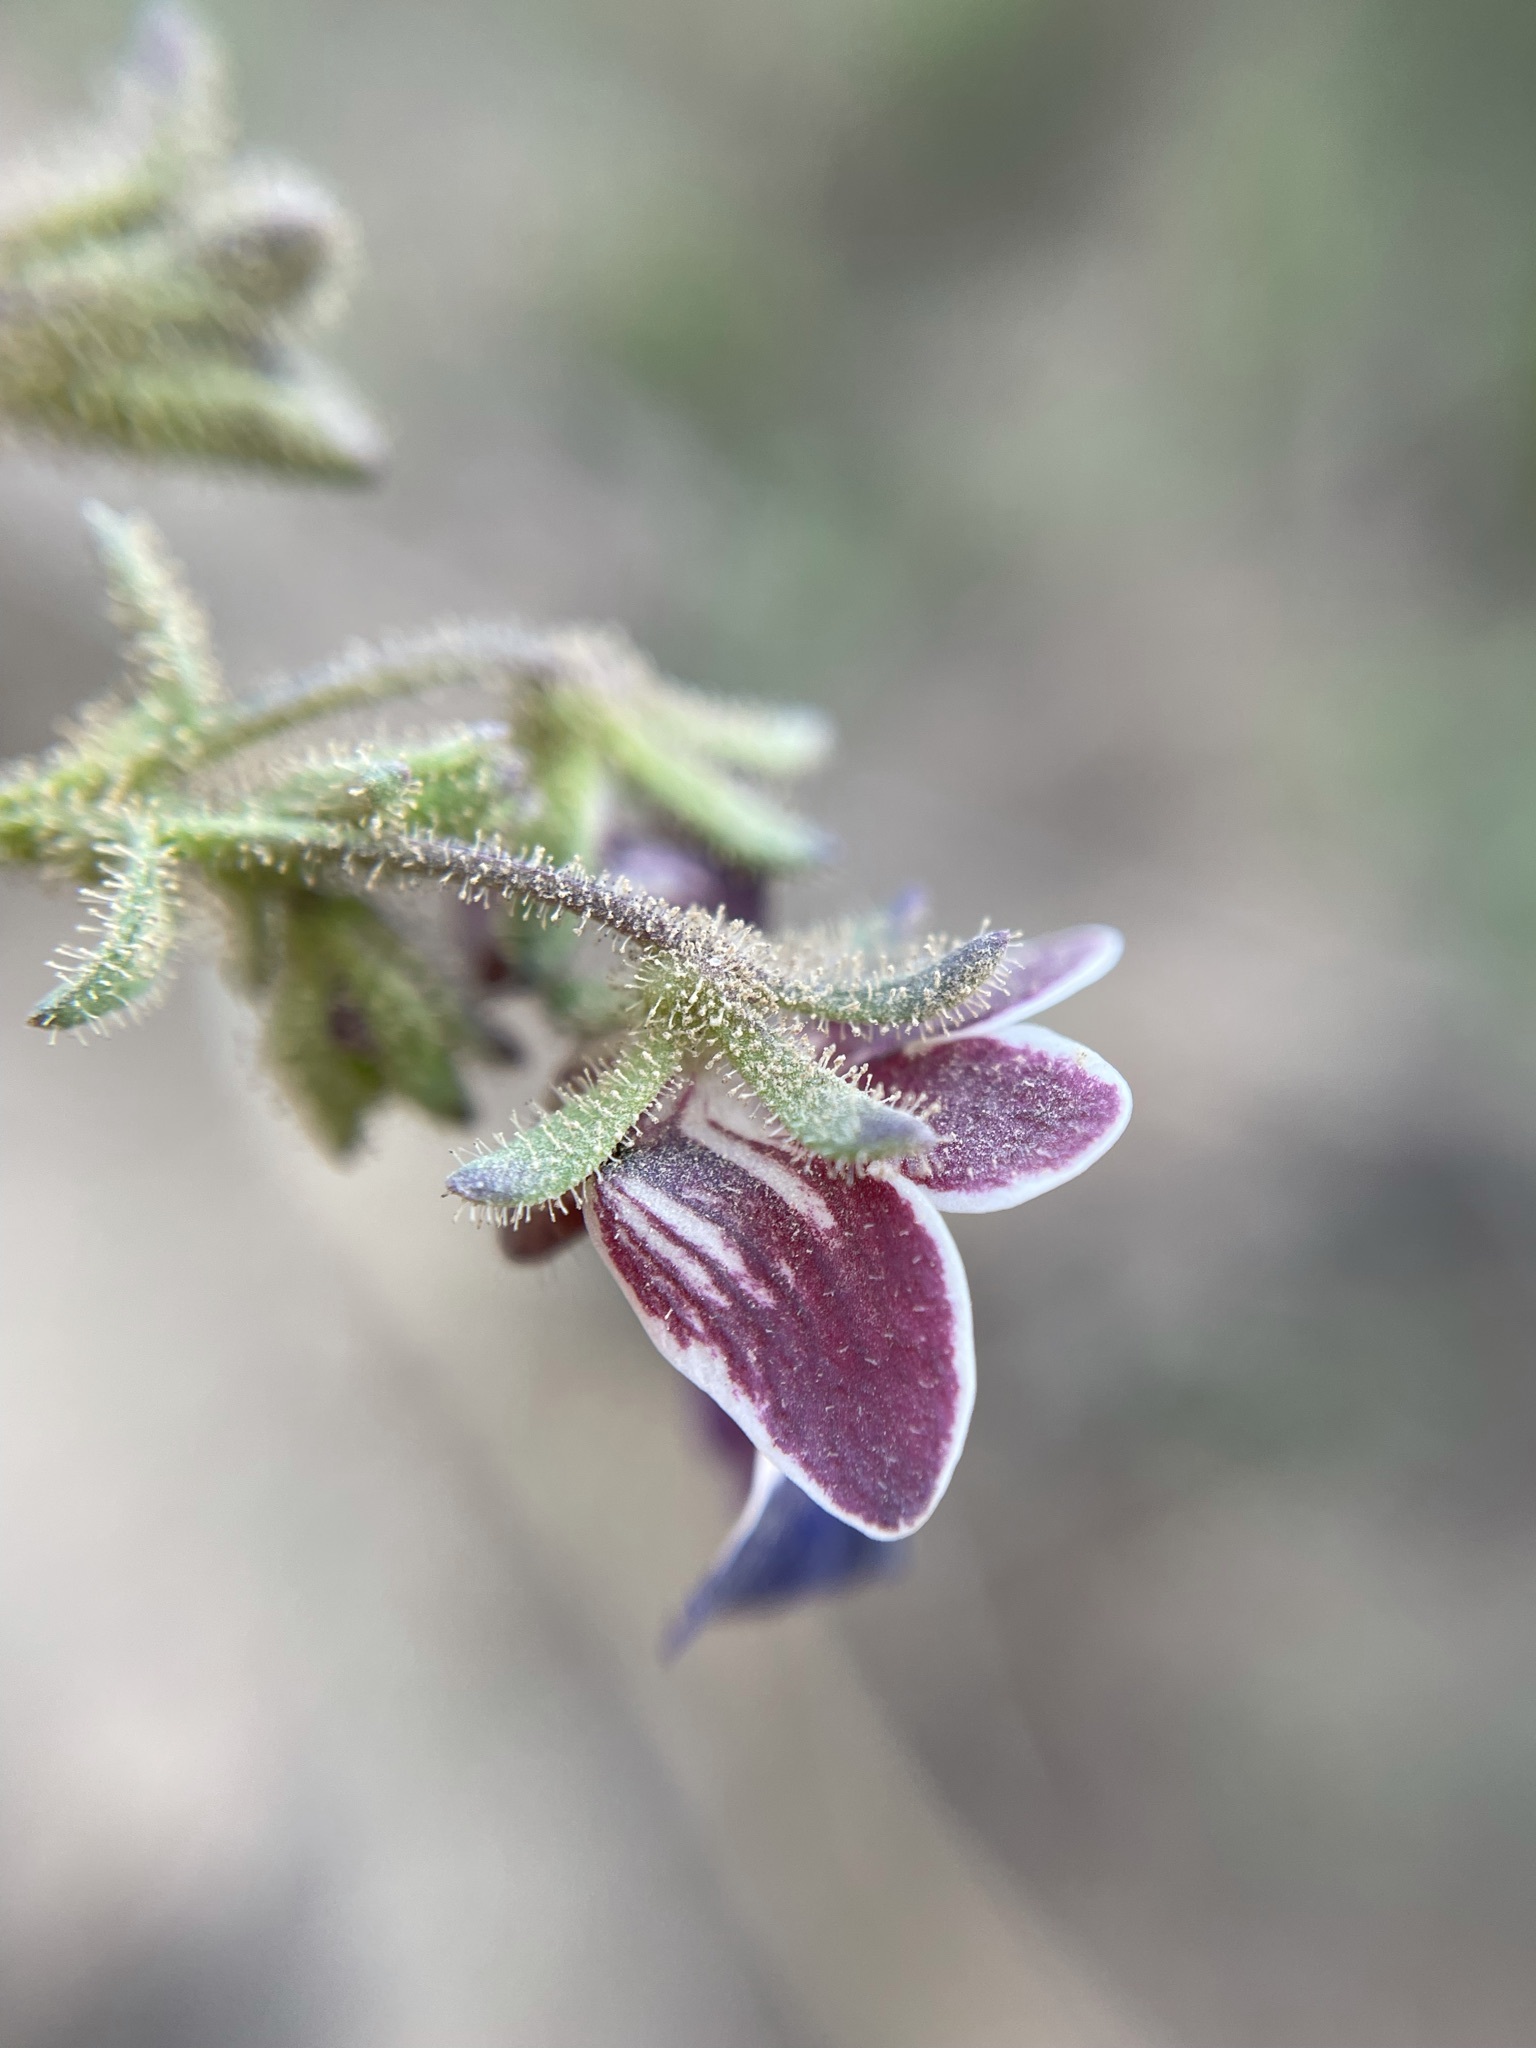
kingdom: Plantae
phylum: Tracheophyta
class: Magnoliopsida
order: Lamiales
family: Scrophulariaceae
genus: Nemesia
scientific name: Nemesia barbata
